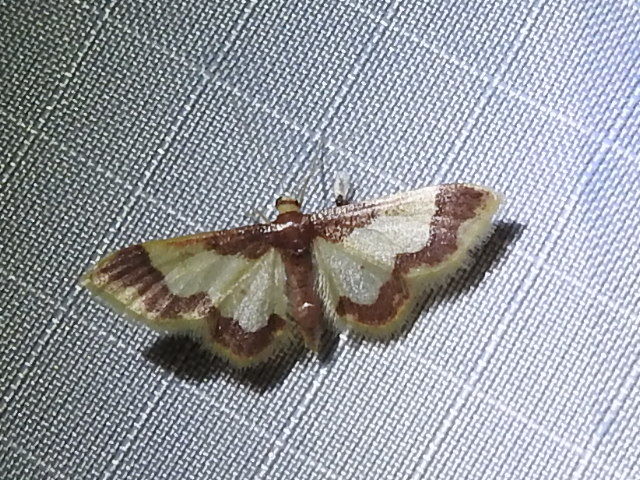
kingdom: Animalia
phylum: Arthropoda
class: Insecta
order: Lepidoptera
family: Geometridae
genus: Idaea
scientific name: Idaea basinta
